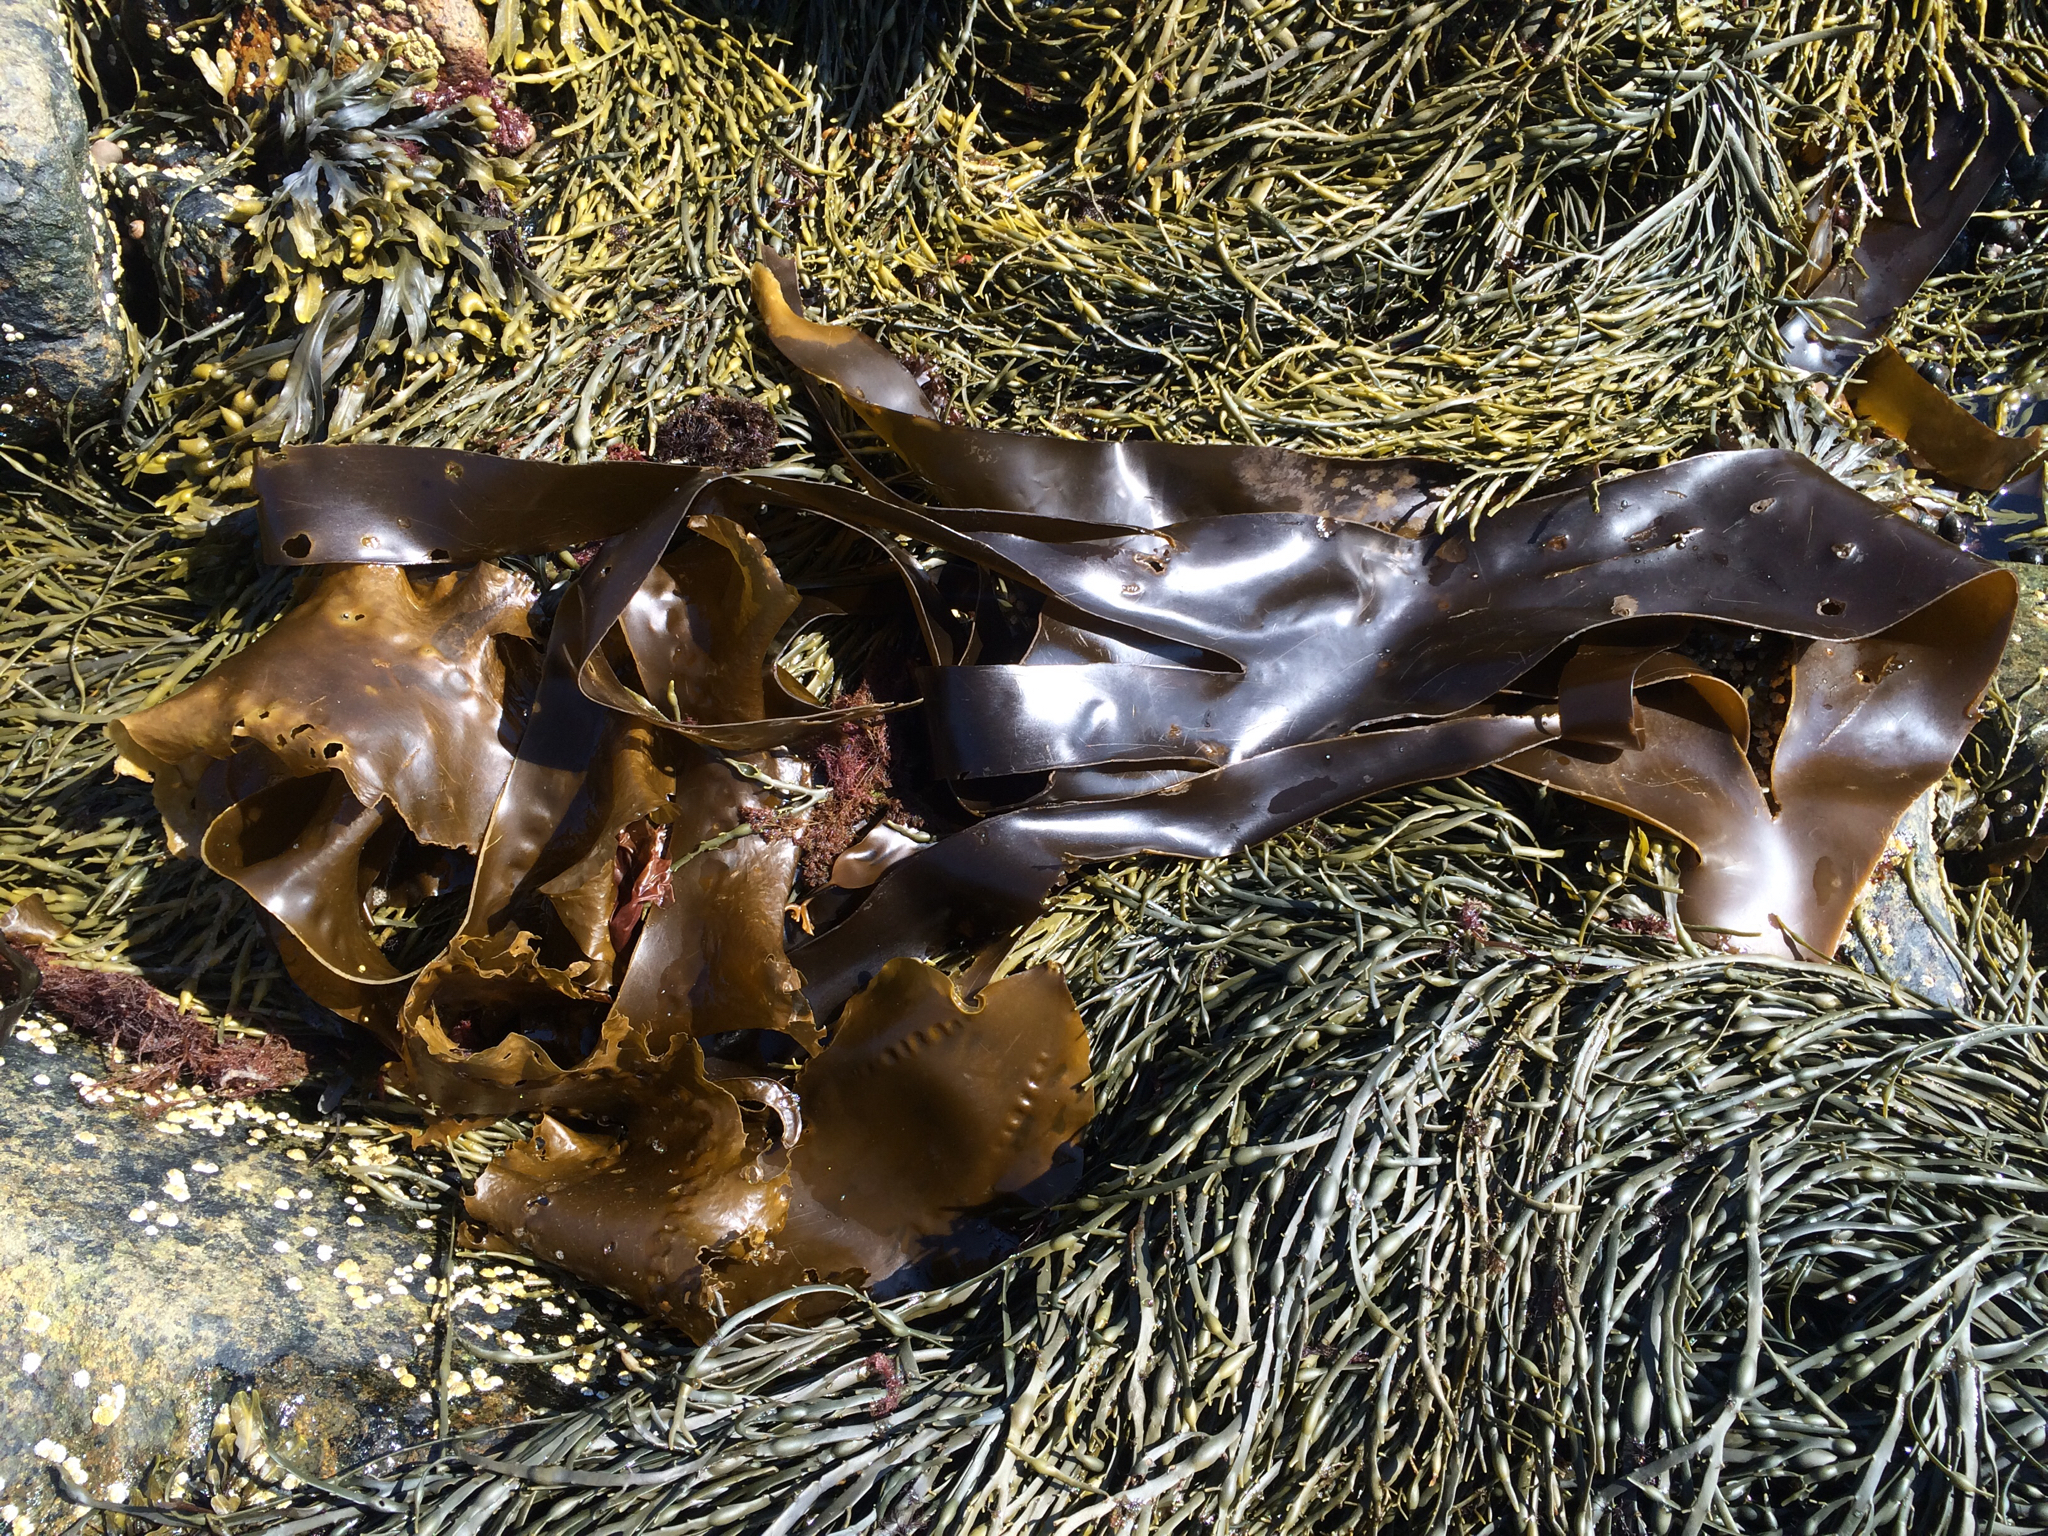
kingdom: Chromista
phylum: Ochrophyta
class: Phaeophyceae
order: Laminariales
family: Laminariaceae
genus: Laminaria
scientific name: Laminaria digitata
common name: Oarweed
